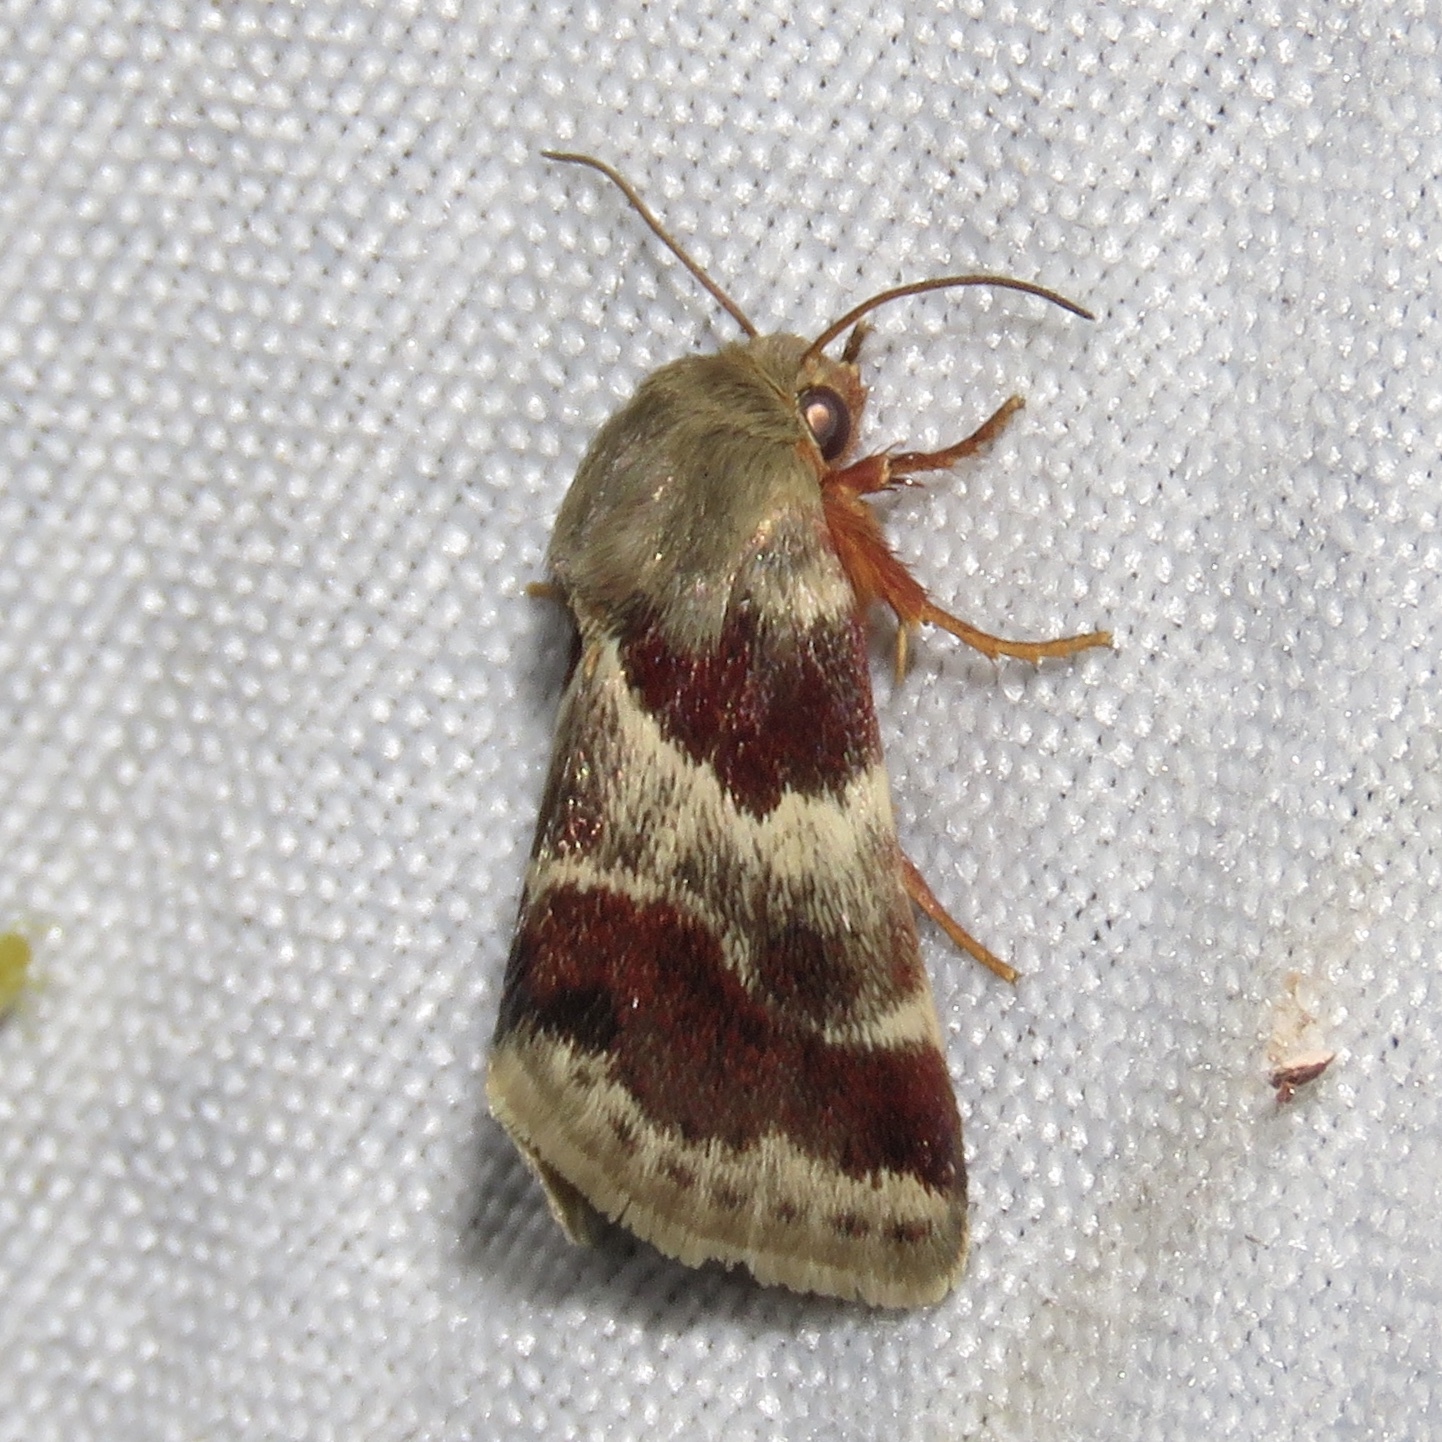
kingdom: Animalia
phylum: Arthropoda
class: Insecta
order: Lepidoptera
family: Noctuidae
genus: Schinia
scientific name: Schinia lynx
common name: Lynx flower moth
